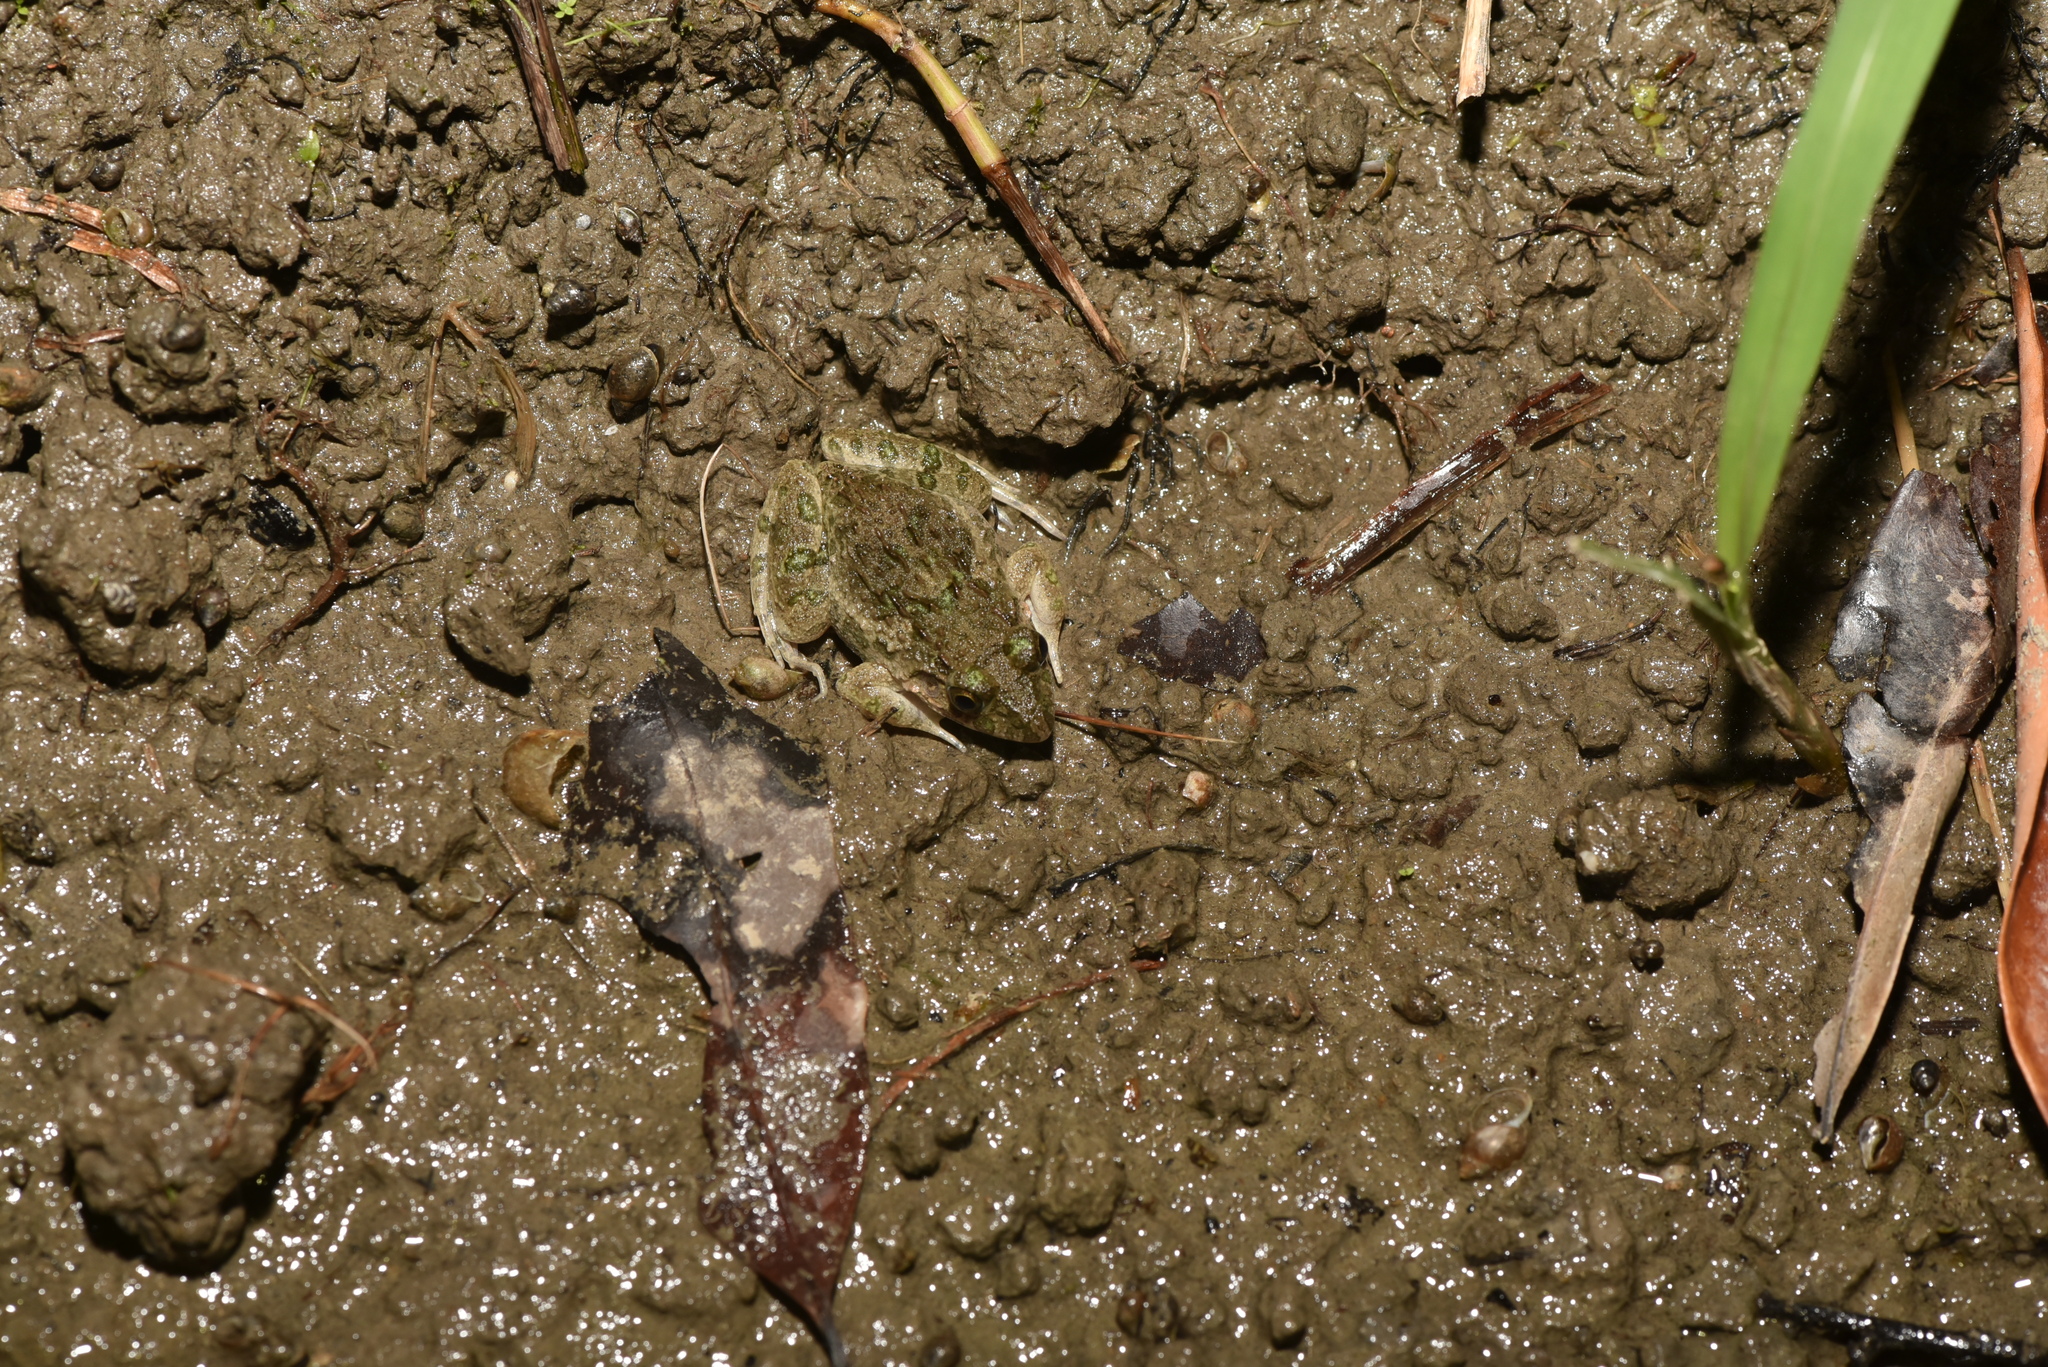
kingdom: Animalia
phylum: Chordata
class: Amphibia
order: Anura
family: Dicroglossidae
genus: Fejervarya
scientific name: Fejervarya limnocharis
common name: Asian grass frog/common pond frog/field frog/grass frog/indian rice frog
